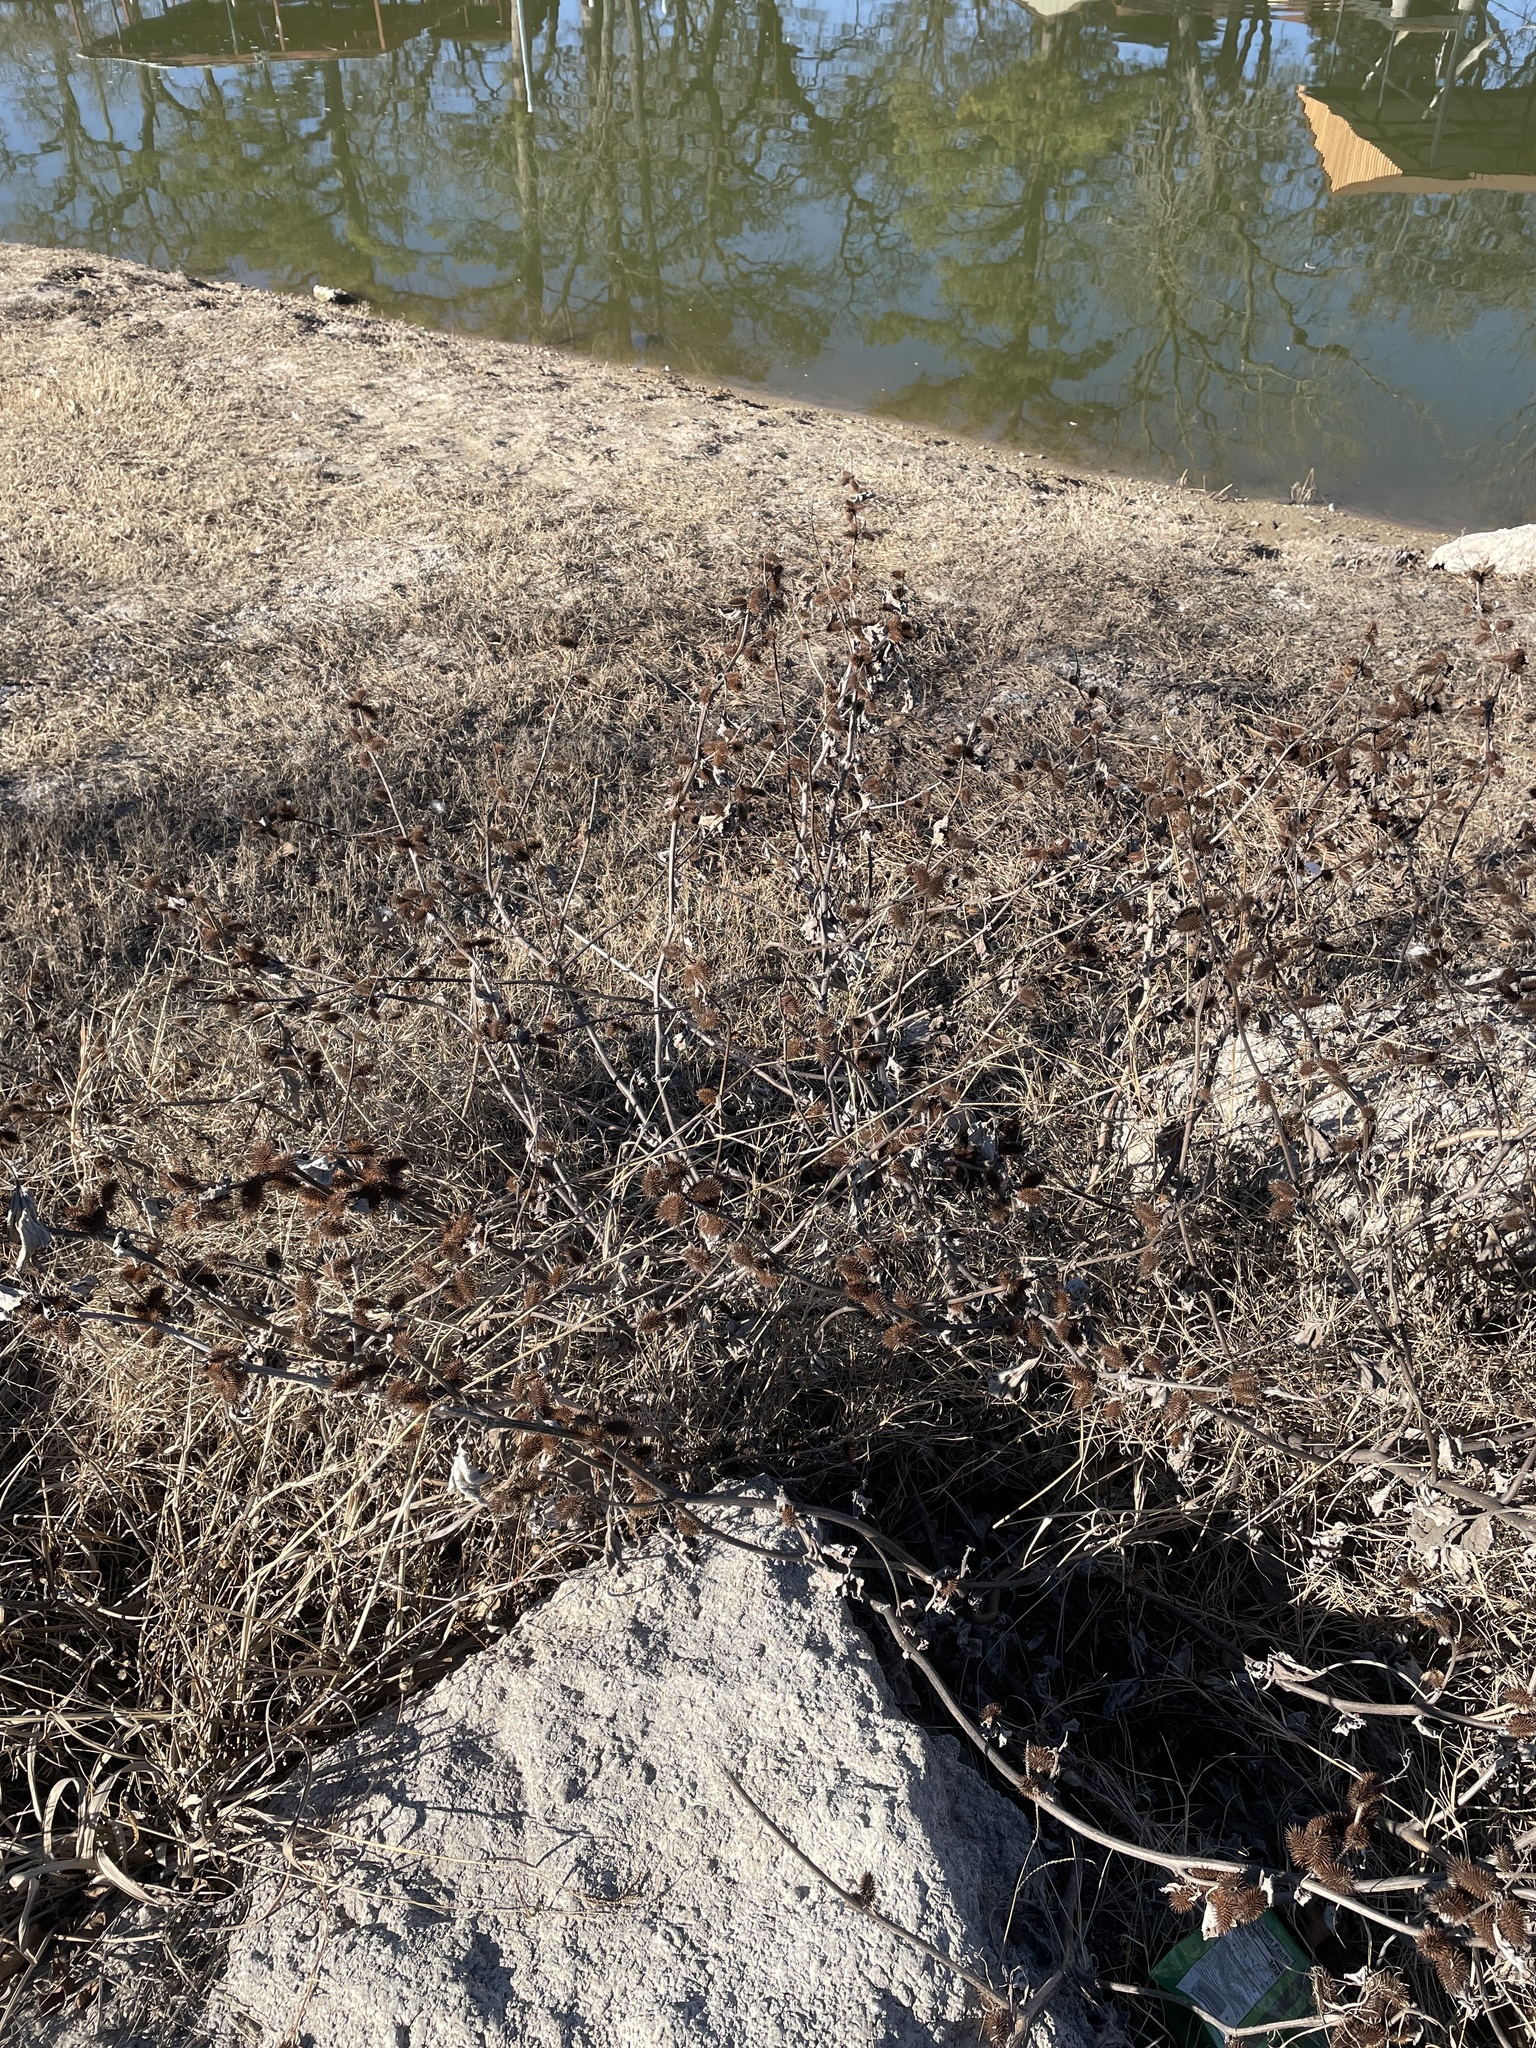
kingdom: Plantae
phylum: Tracheophyta
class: Magnoliopsida
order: Asterales
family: Asteraceae
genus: Xanthium
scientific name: Xanthium strumarium
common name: Rough cocklebur
